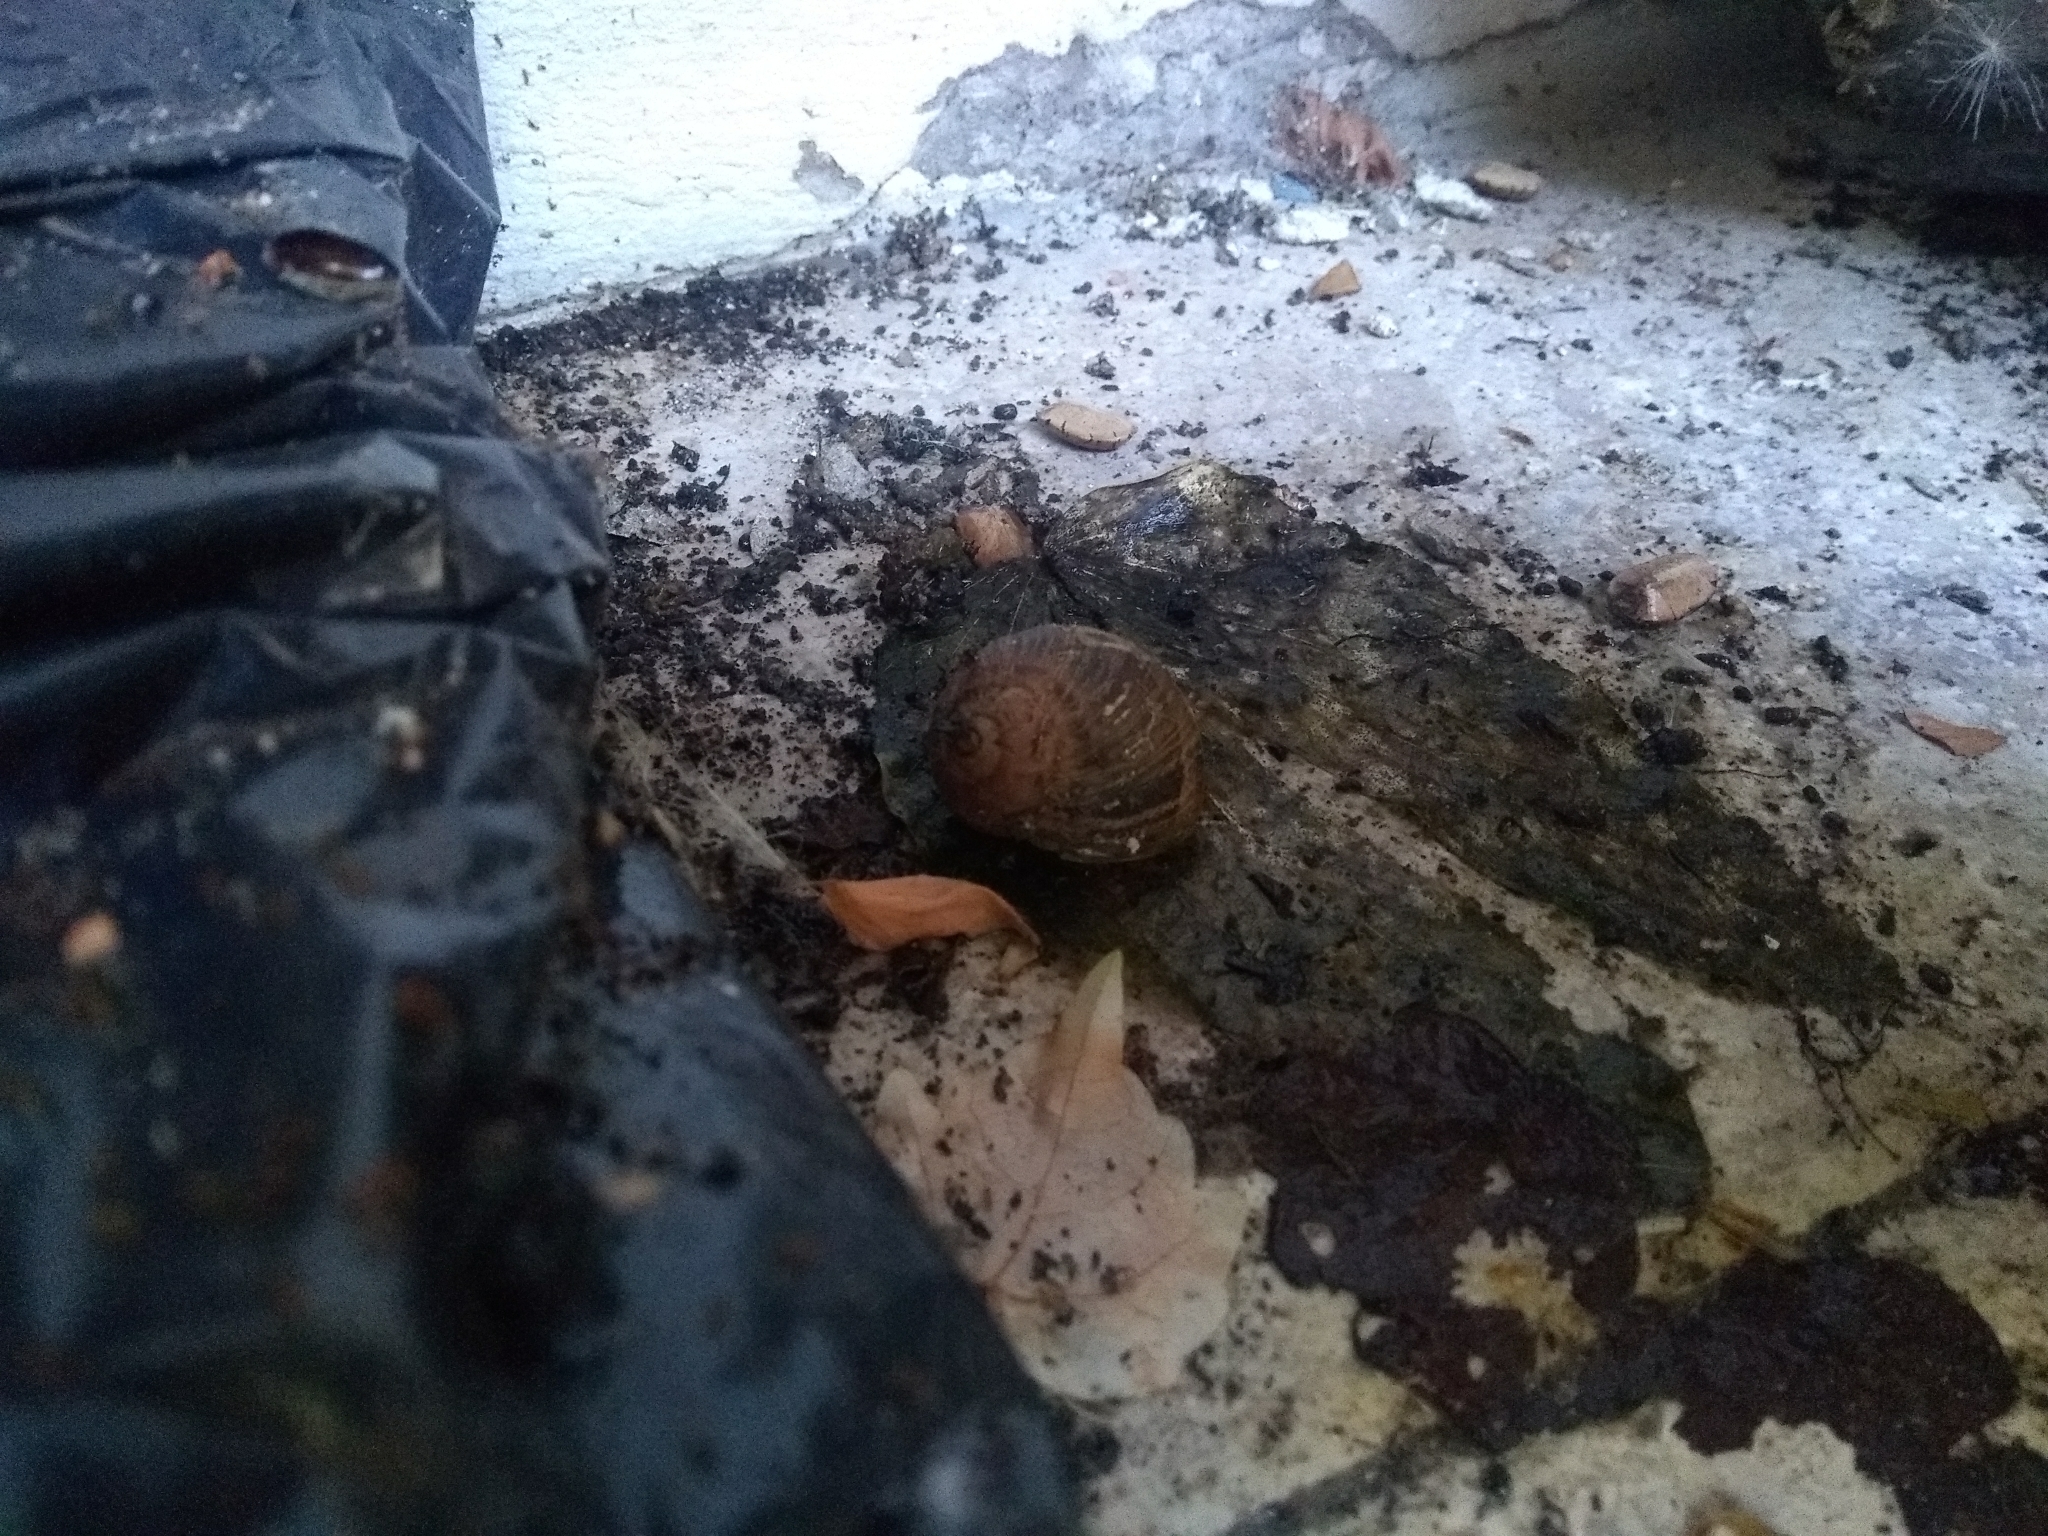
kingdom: Animalia
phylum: Mollusca
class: Gastropoda
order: Stylommatophora
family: Helicidae
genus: Cornu
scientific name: Cornu aspersum
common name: Brown garden snail
